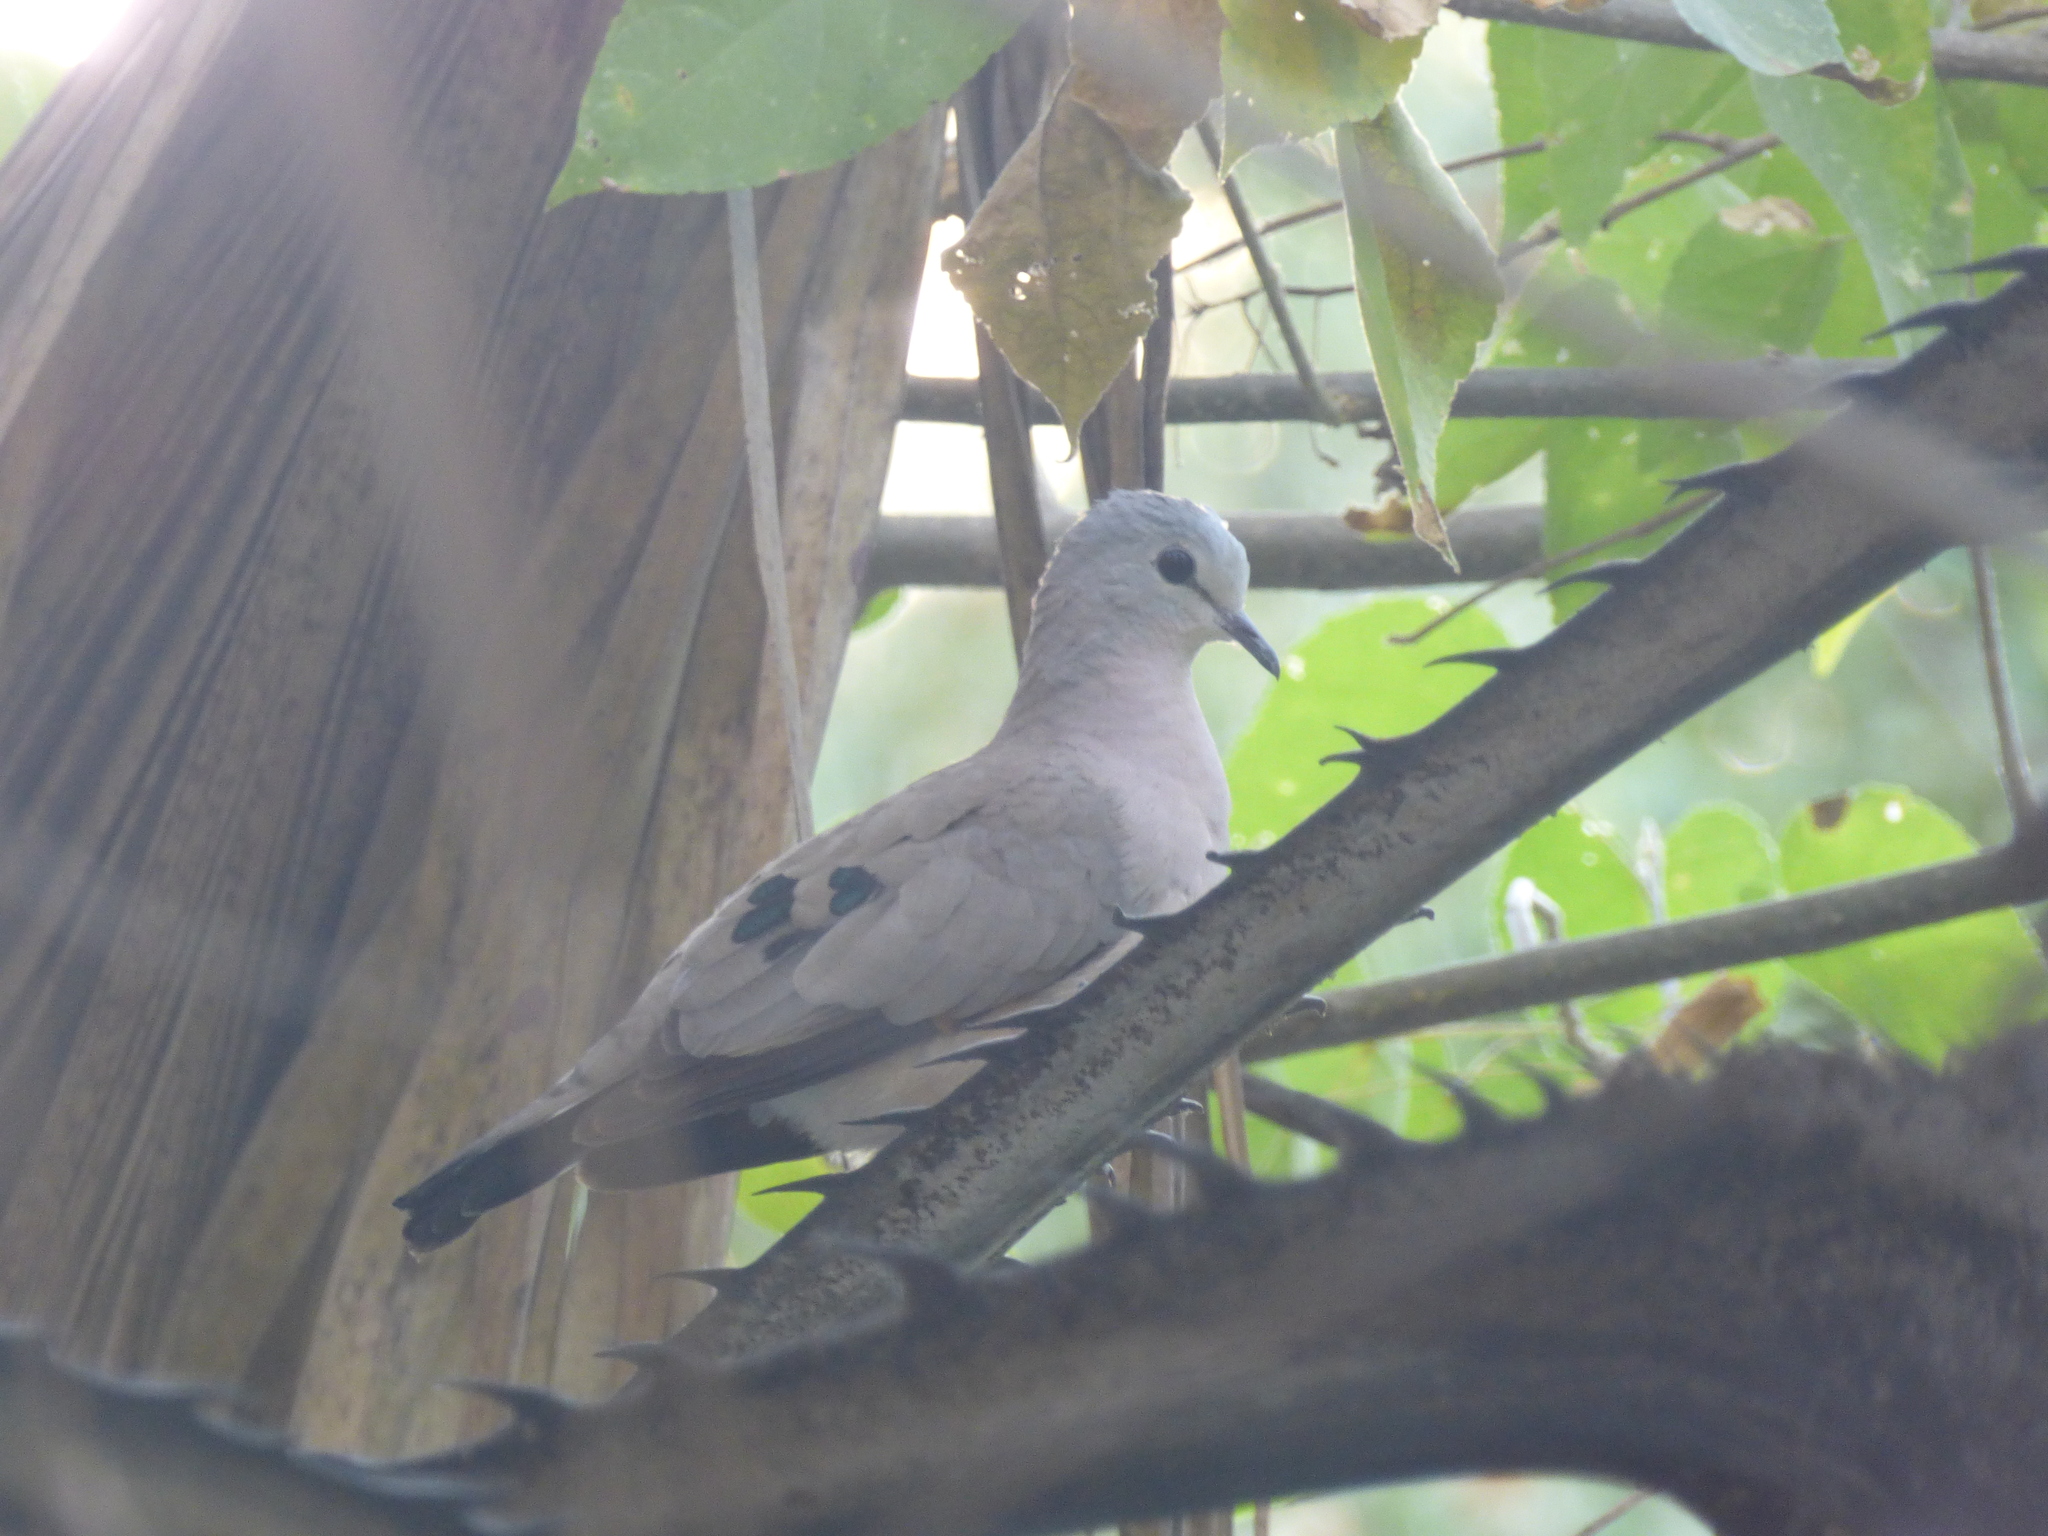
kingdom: Animalia
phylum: Chordata
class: Aves
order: Columbiformes
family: Columbidae
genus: Turtur
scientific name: Turtur chalcospilos
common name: Emerald-spotted wood dove
